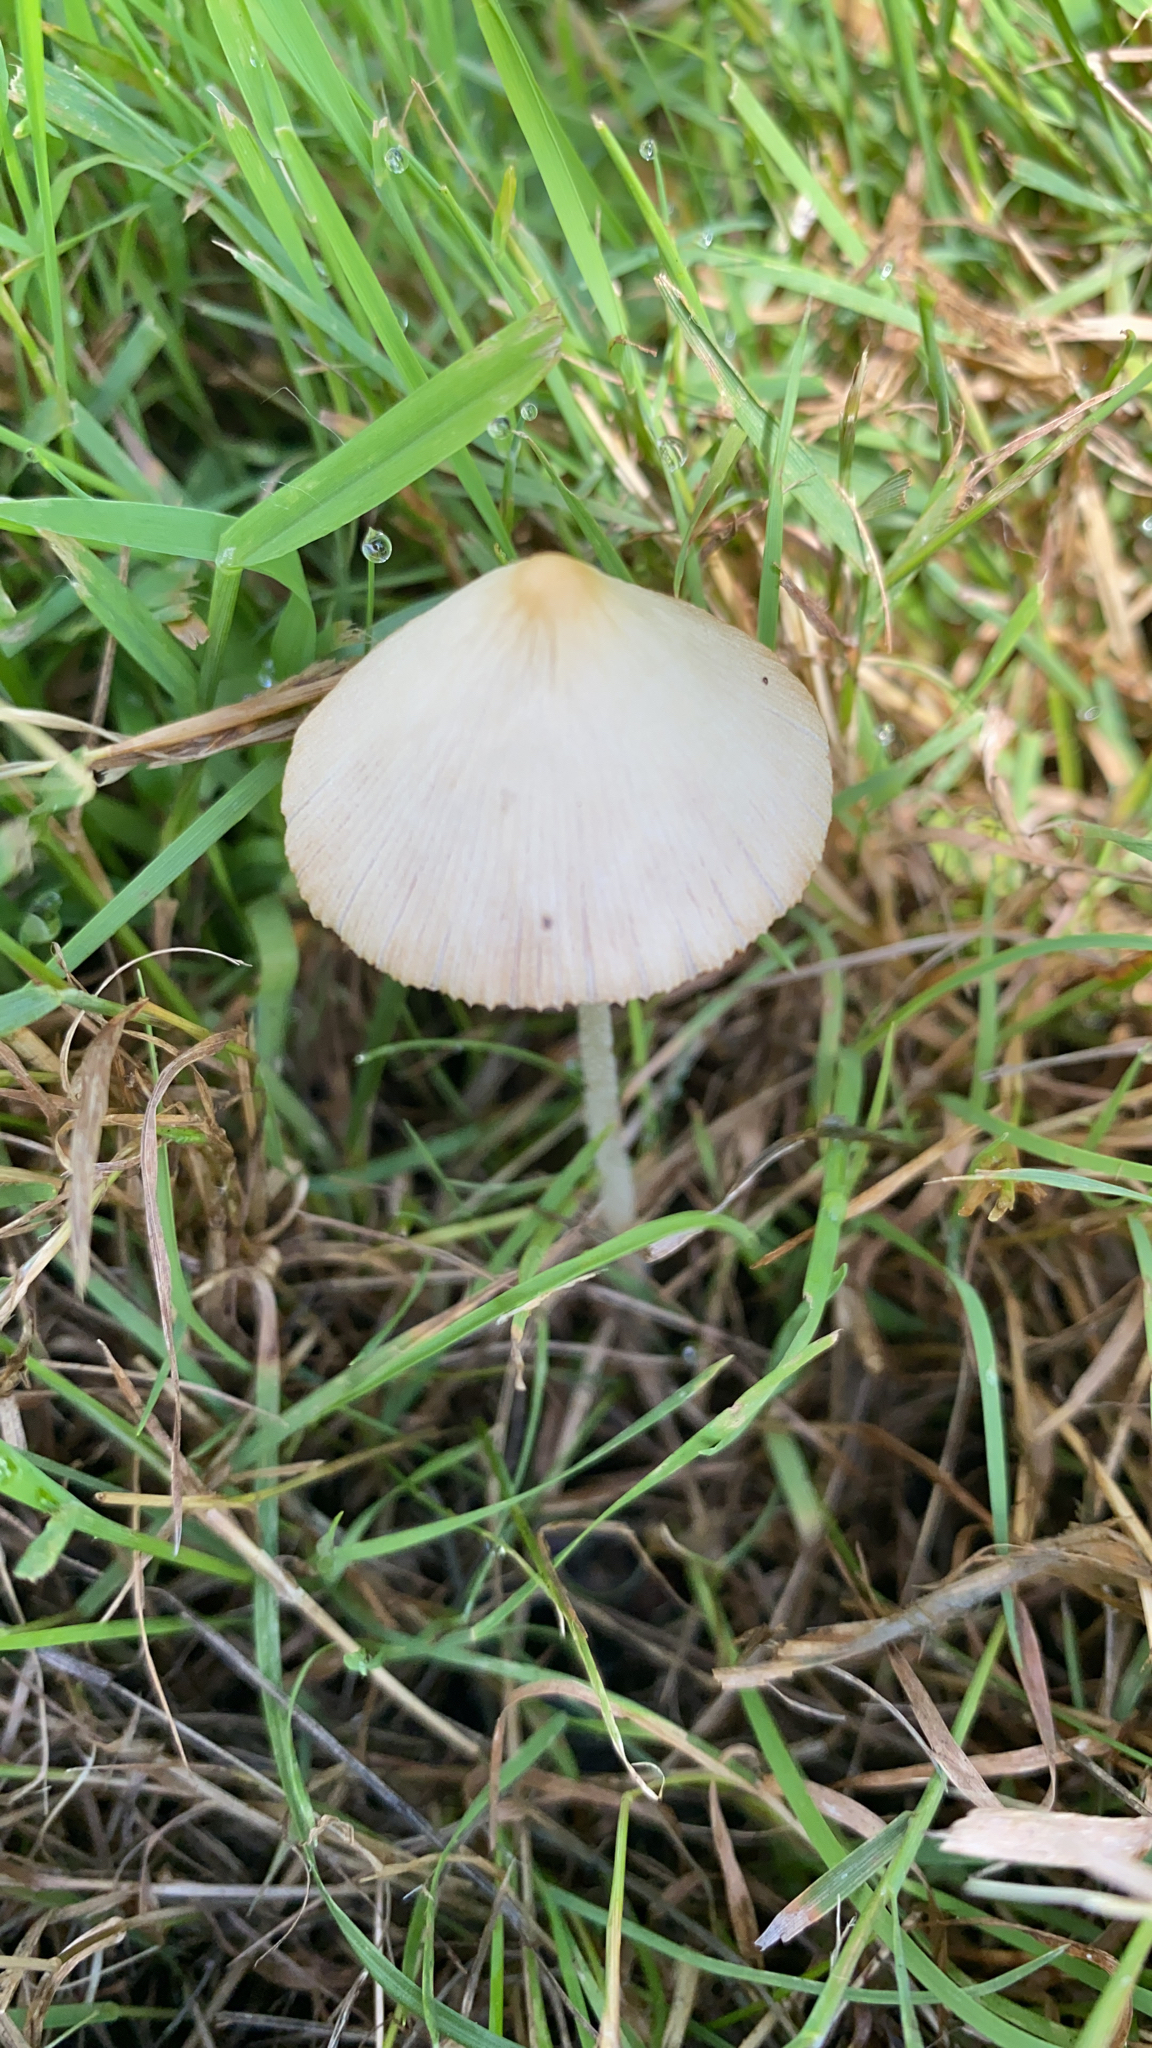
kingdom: Fungi
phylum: Basidiomycota
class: Agaricomycetes
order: Agaricales
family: Bolbitiaceae
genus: Conocybe
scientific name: Conocybe apala
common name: Milky conecap
